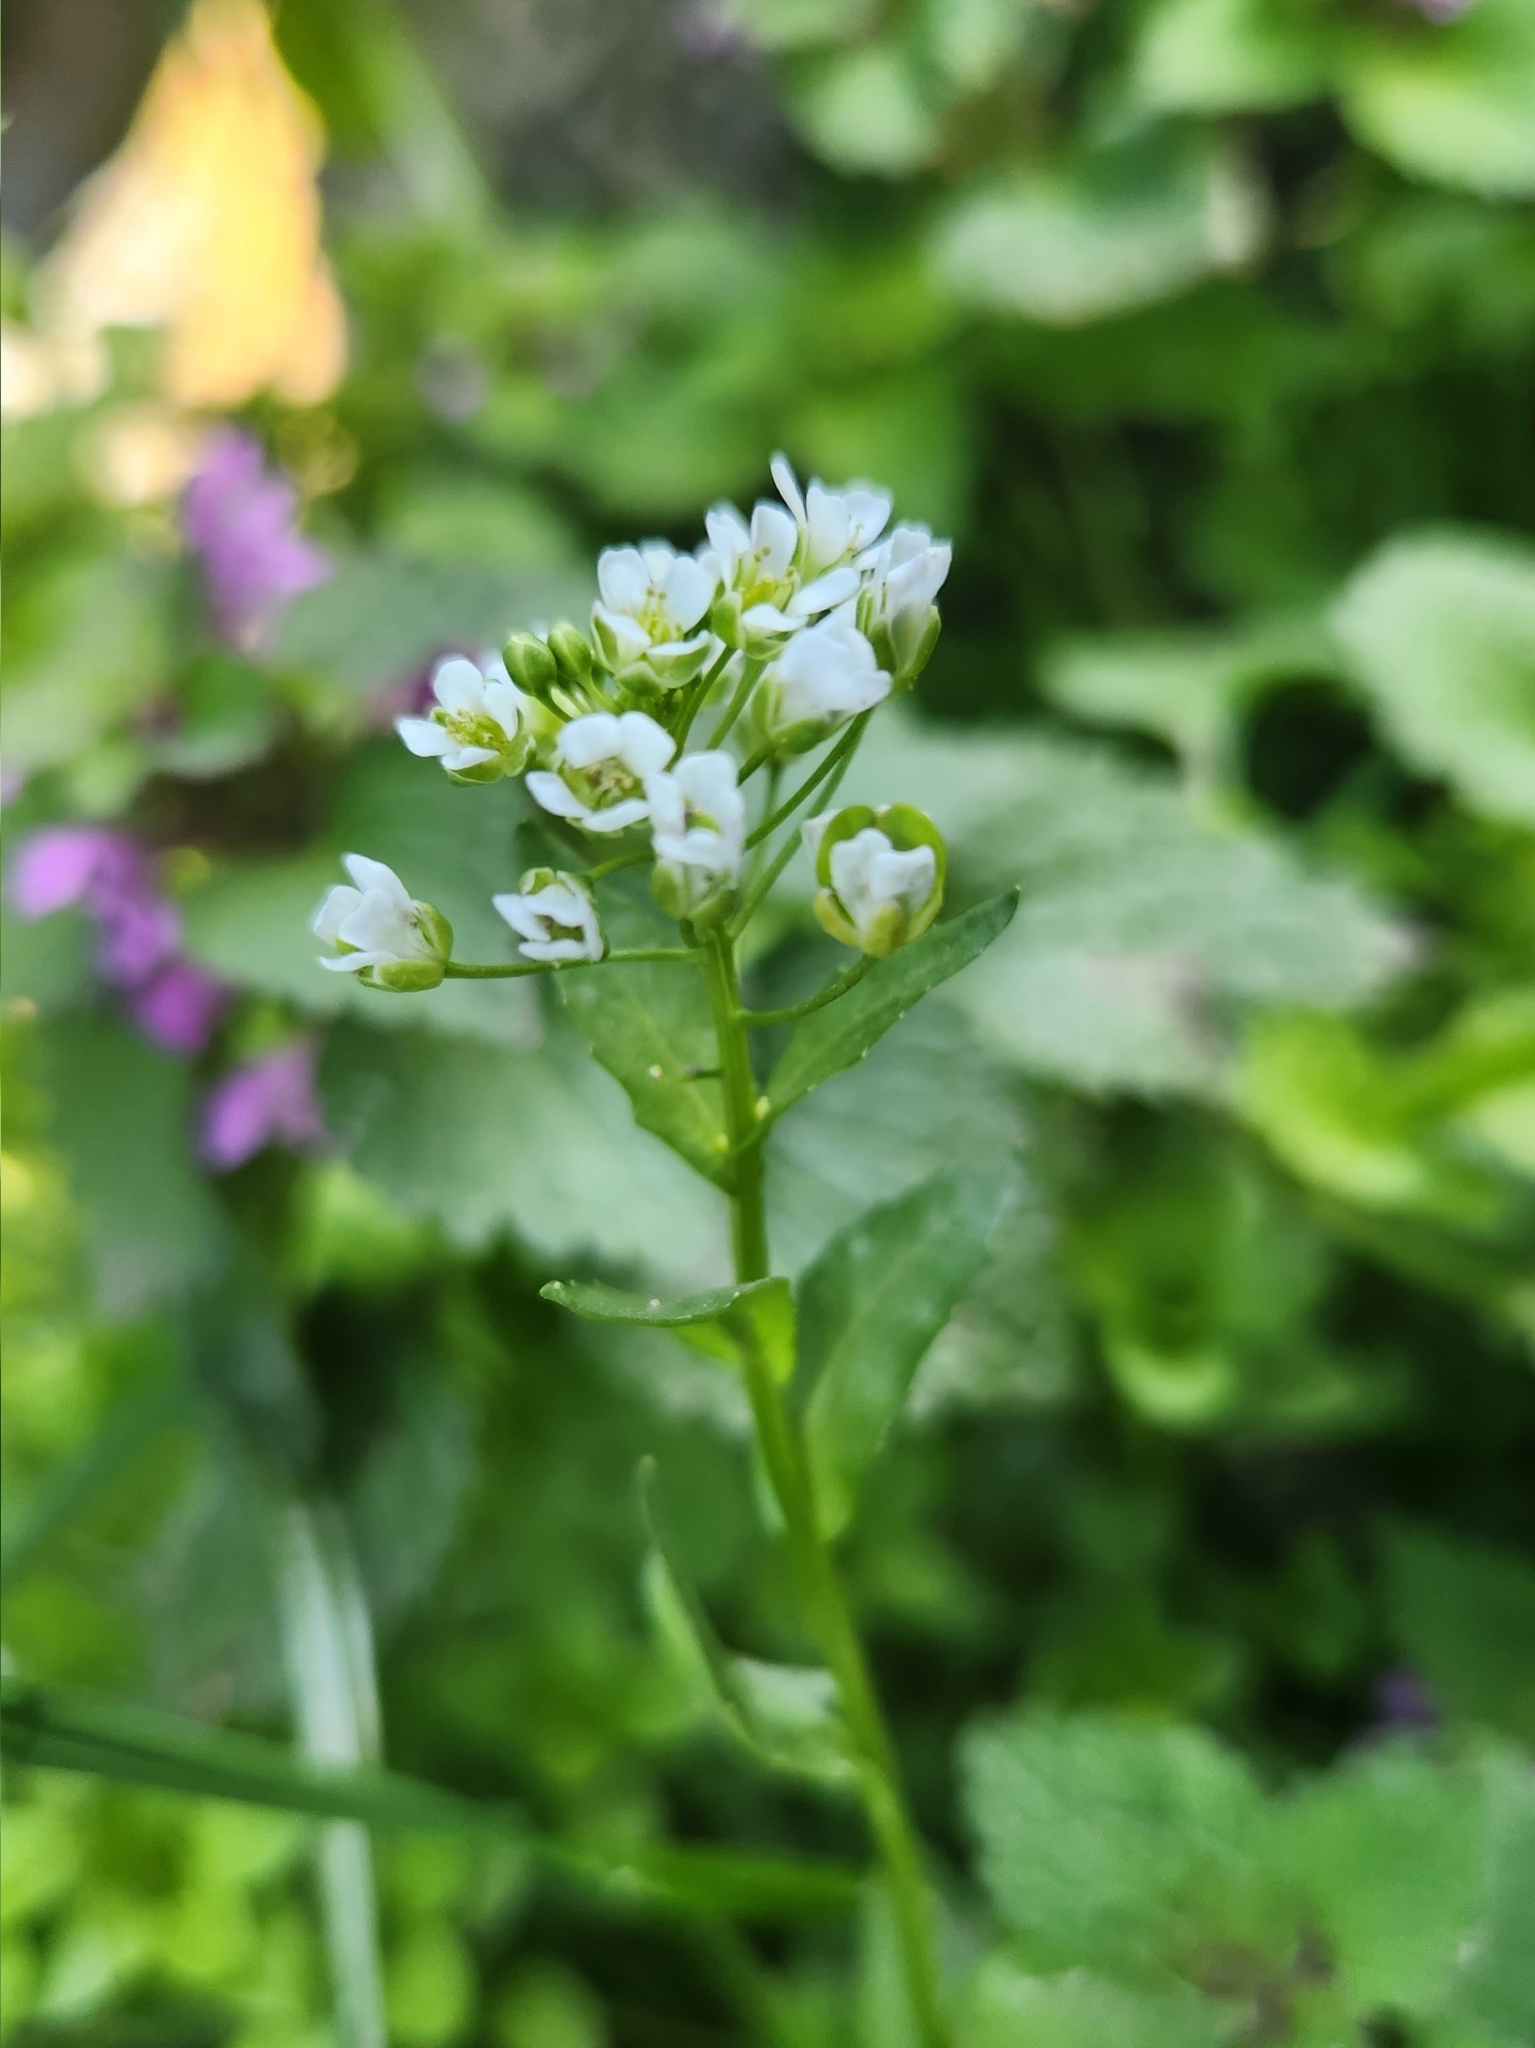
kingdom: Plantae
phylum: Tracheophyta
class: Magnoliopsida
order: Brassicales
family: Brassicaceae
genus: Thlaspi
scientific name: Thlaspi arvense
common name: Field pennycress
